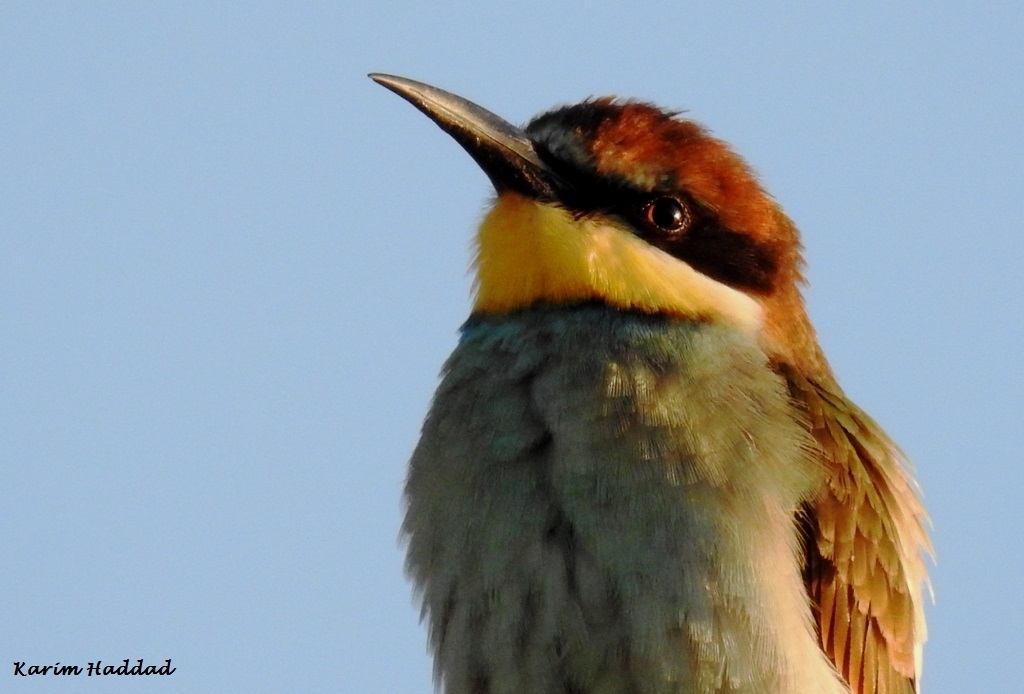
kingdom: Animalia
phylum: Chordata
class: Aves
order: Coraciiformes
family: Meropidae
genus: Merops
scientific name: Merops apiaster
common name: European bee-eater
